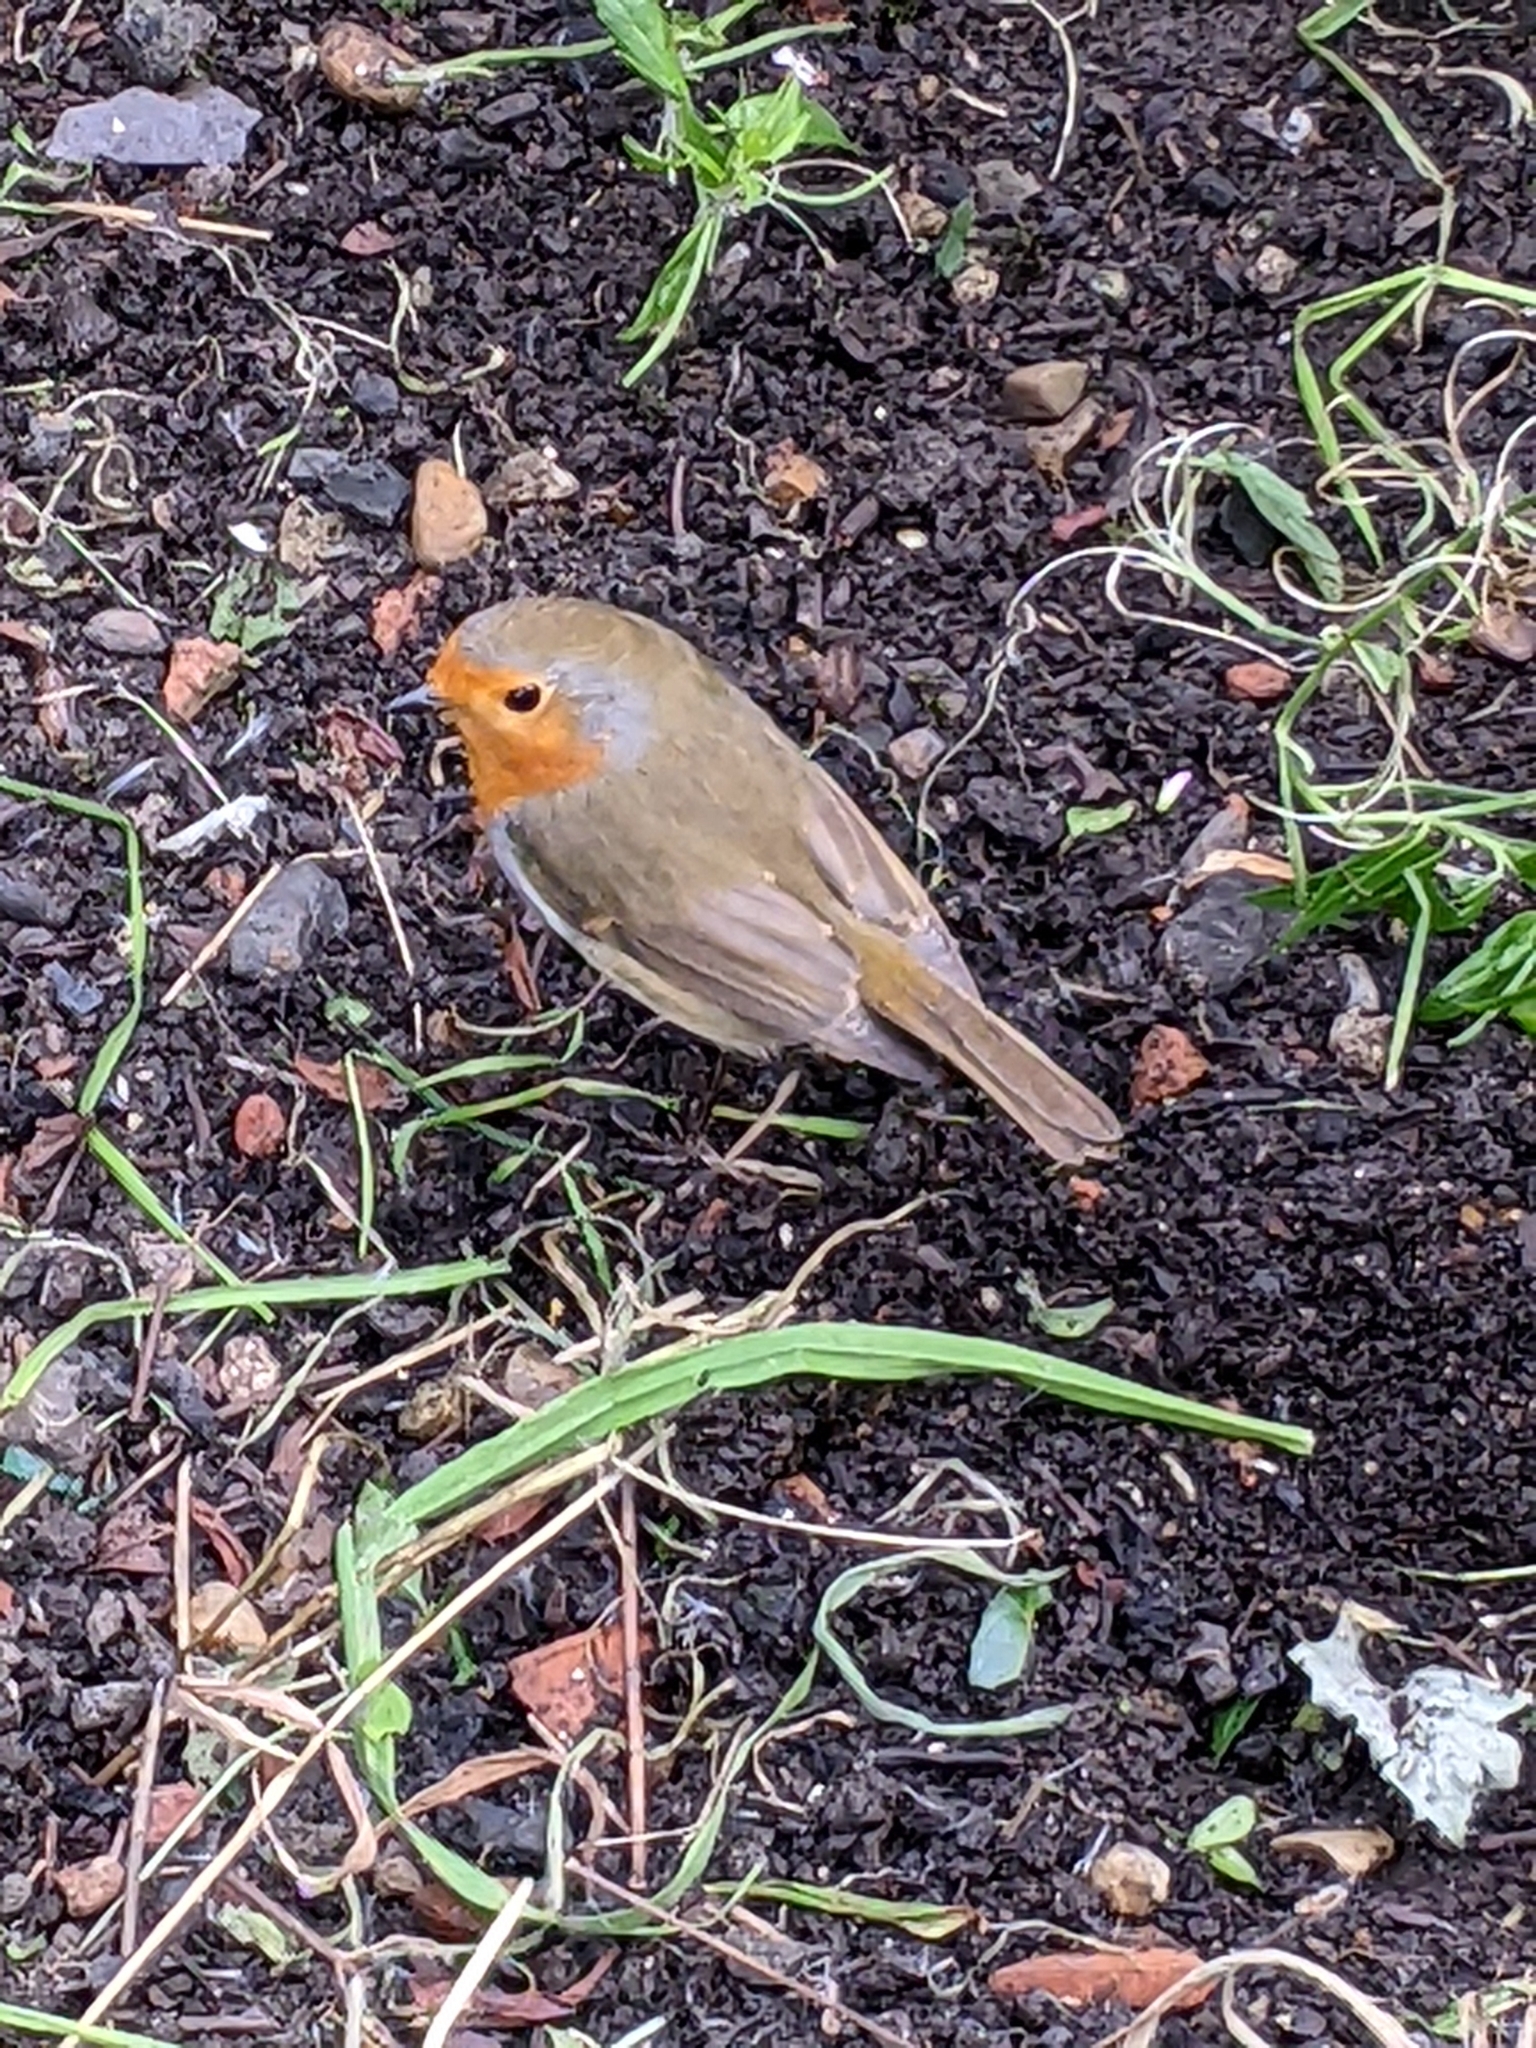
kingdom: Animalia
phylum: Chordata
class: Aves
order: Passeriformes
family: Muscicapidae
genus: Erithacus
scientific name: Erithacus rubecula
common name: European robin
